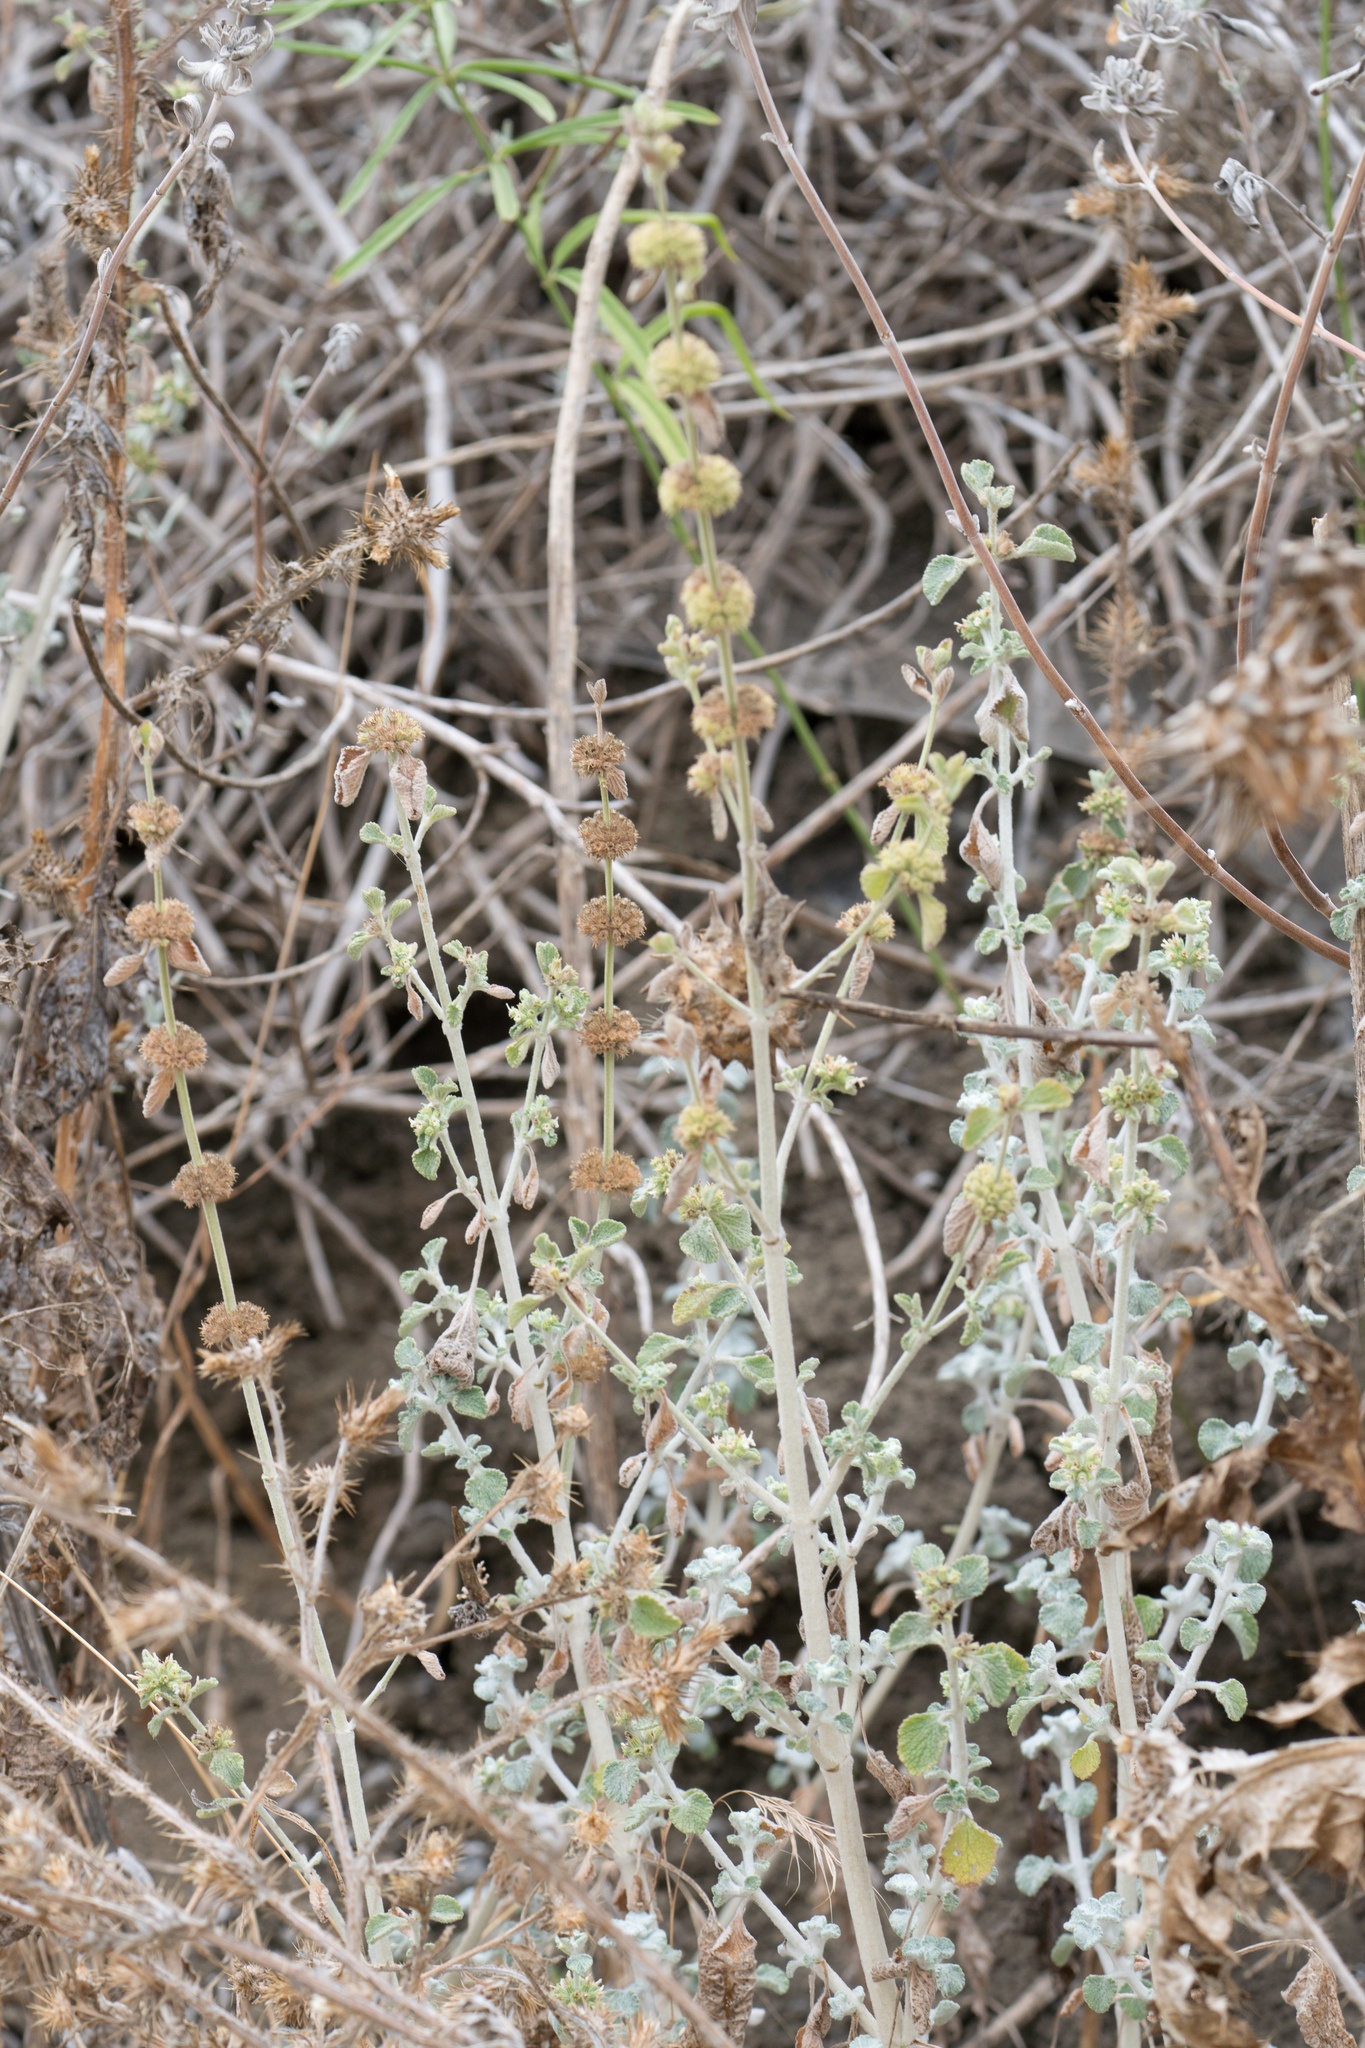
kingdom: Plantae
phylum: Tracheophyta
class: Magnoliopsida
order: Lamiales
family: Lamiaceae
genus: Marrubium
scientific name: Marrubium vulgare
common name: Horehound
